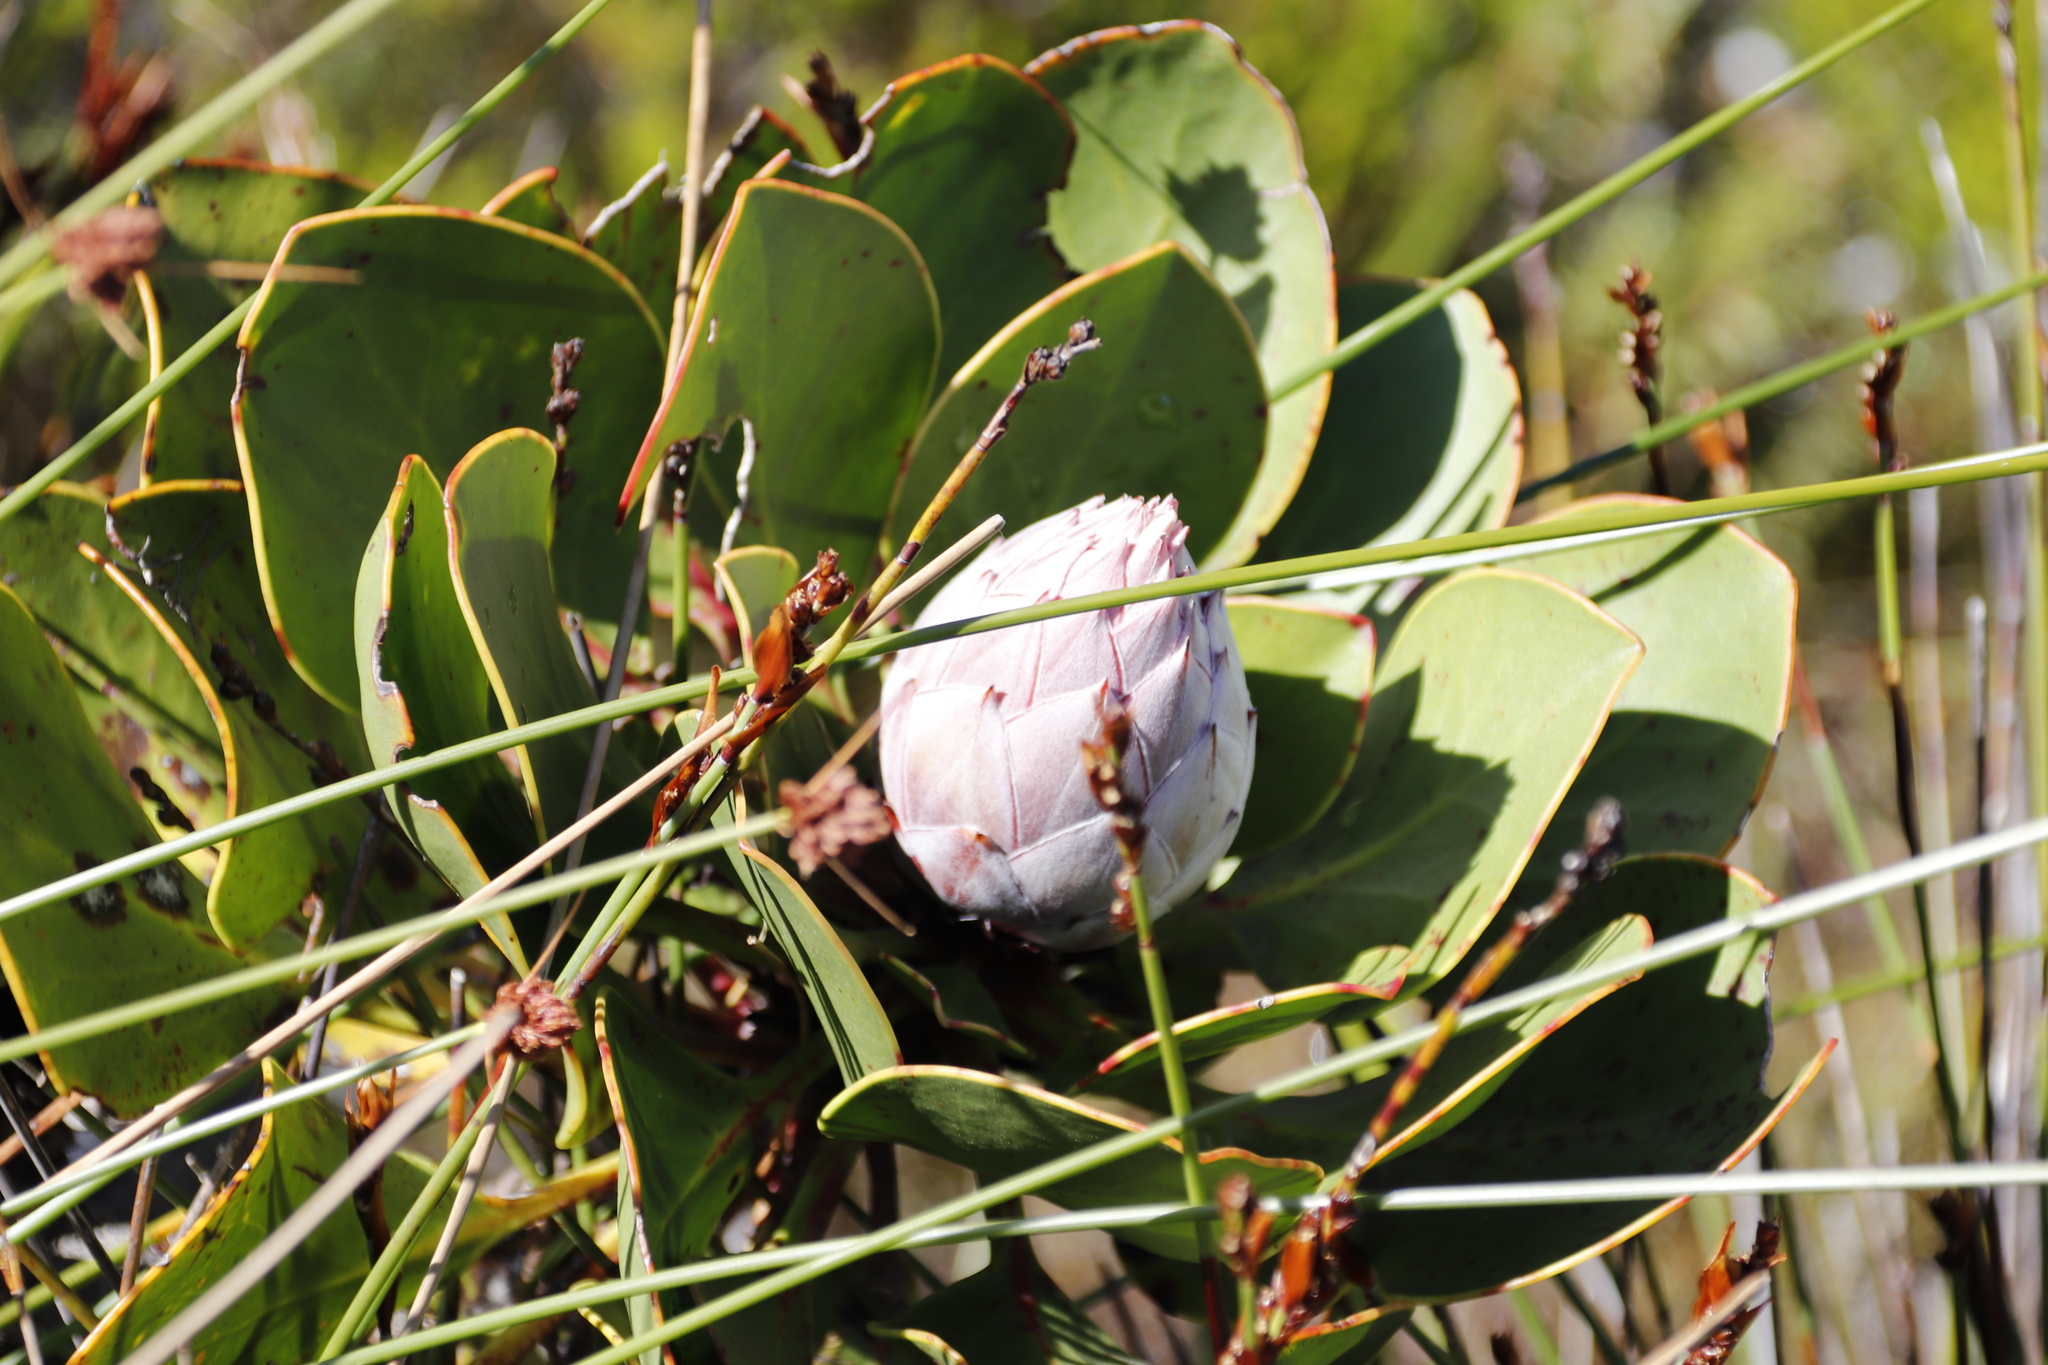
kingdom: Plantae
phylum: Tracheophyta
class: Magnoliopsida
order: Proteales
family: Proteaceae
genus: Protea
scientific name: Protea cynaroides
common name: King protea
